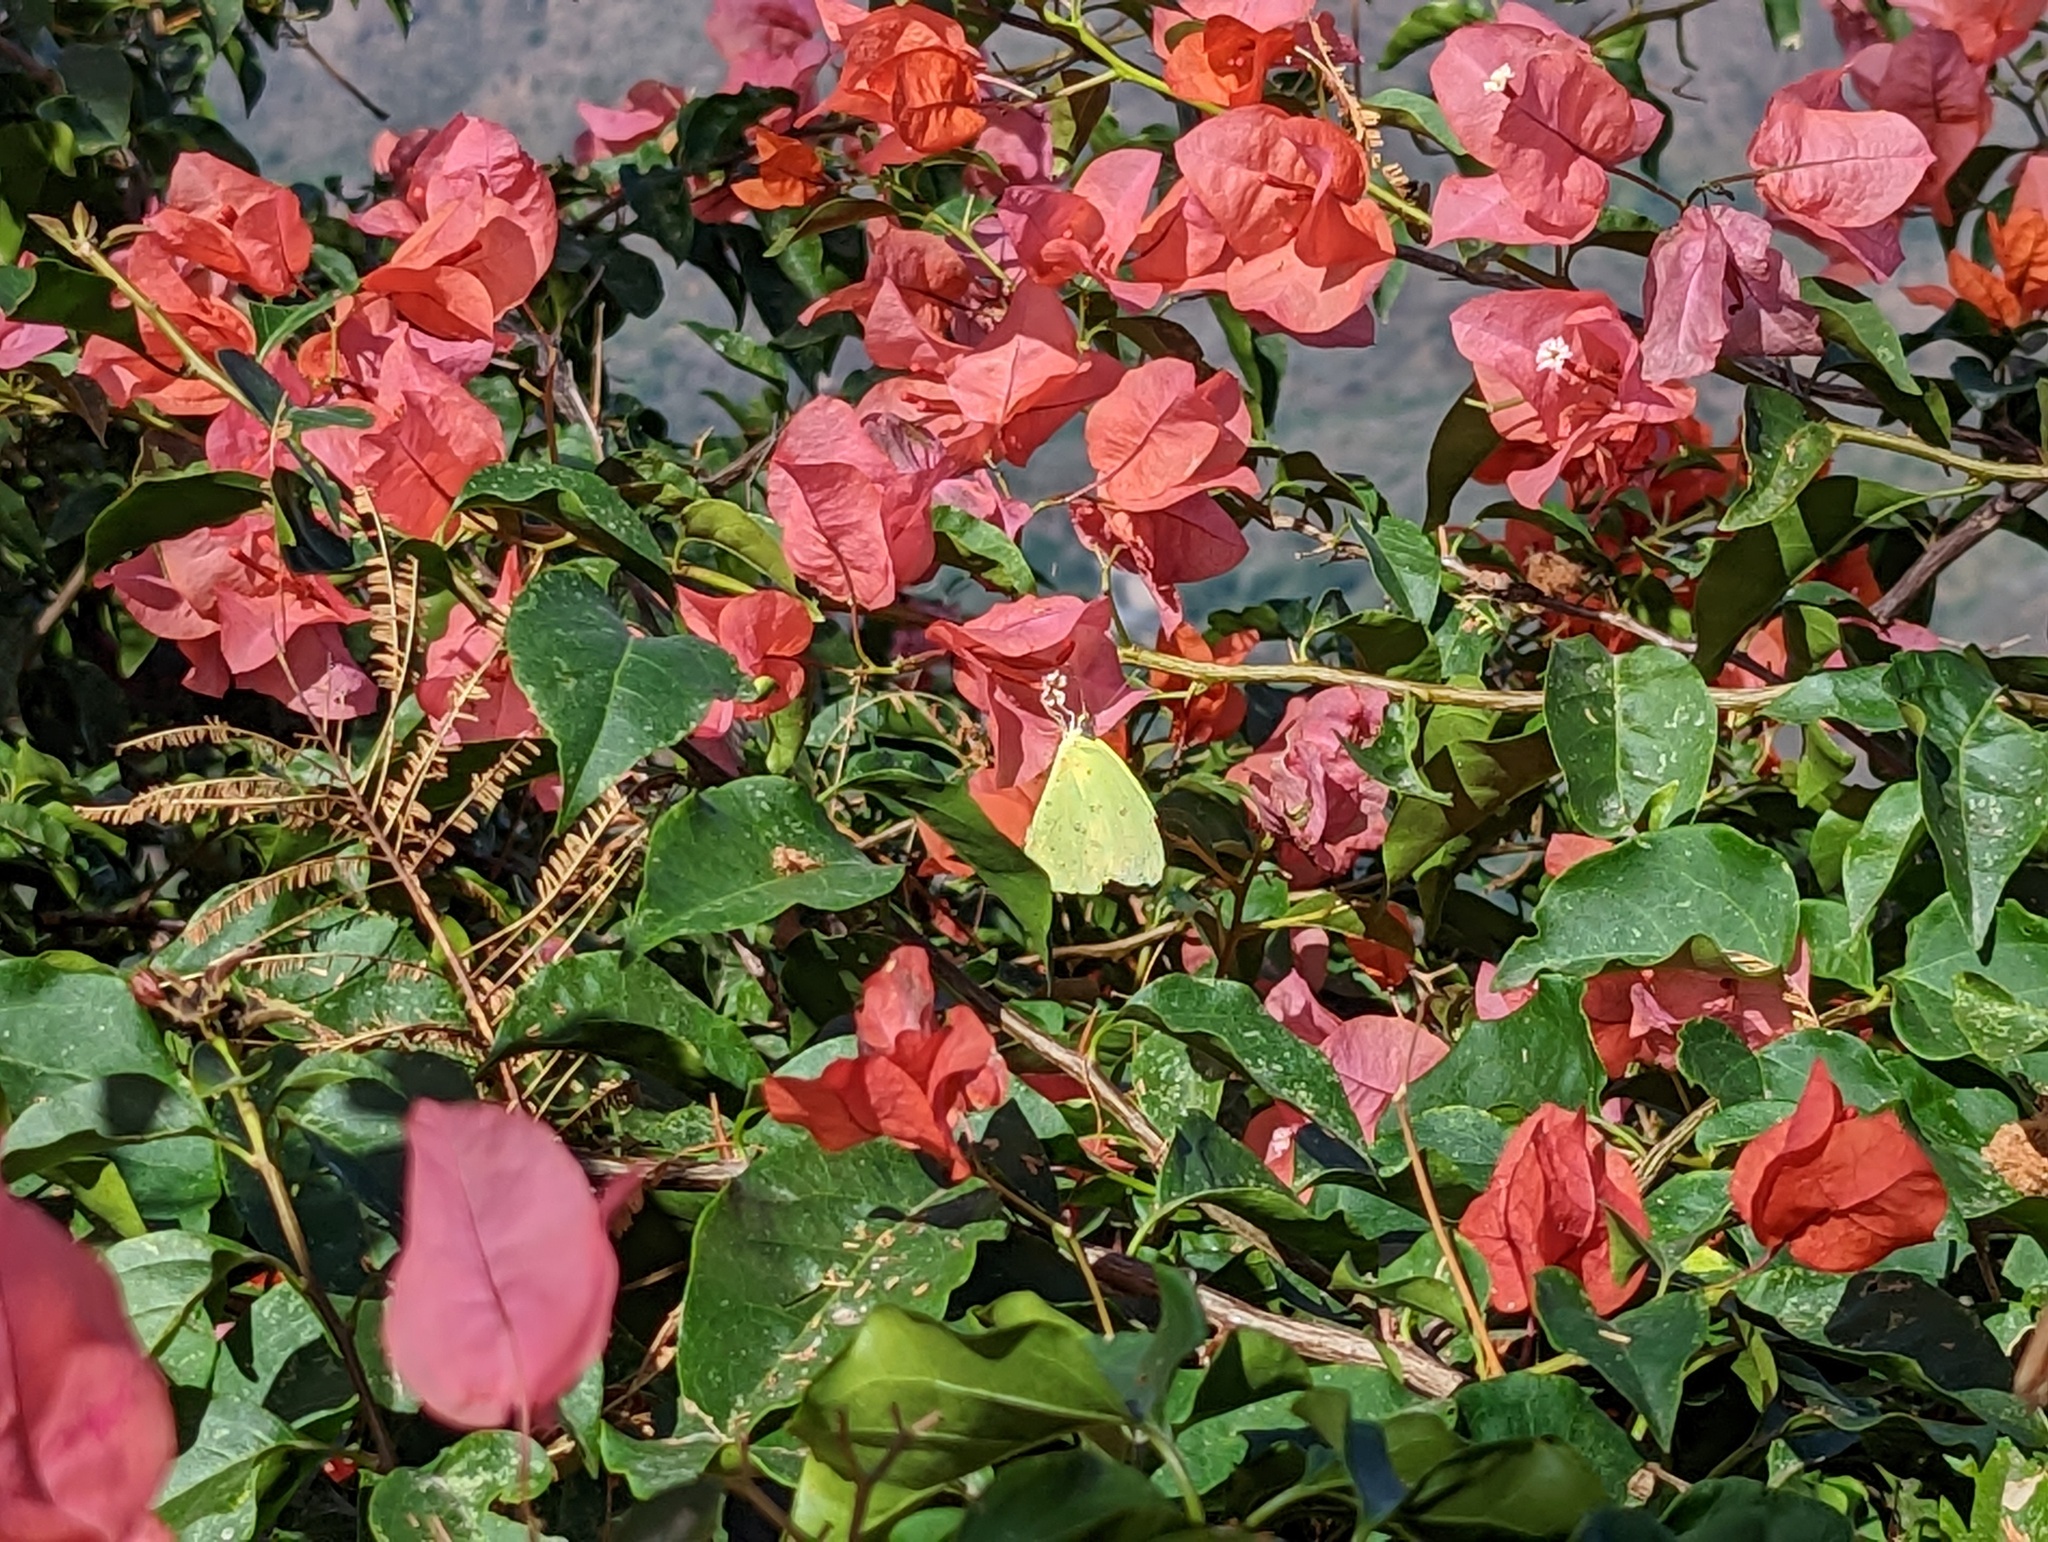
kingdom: Animalia
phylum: Arthropoda
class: Insecta
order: Lepidoptera
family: Pieridae
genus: Phoebis
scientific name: Phoebis marcellina
